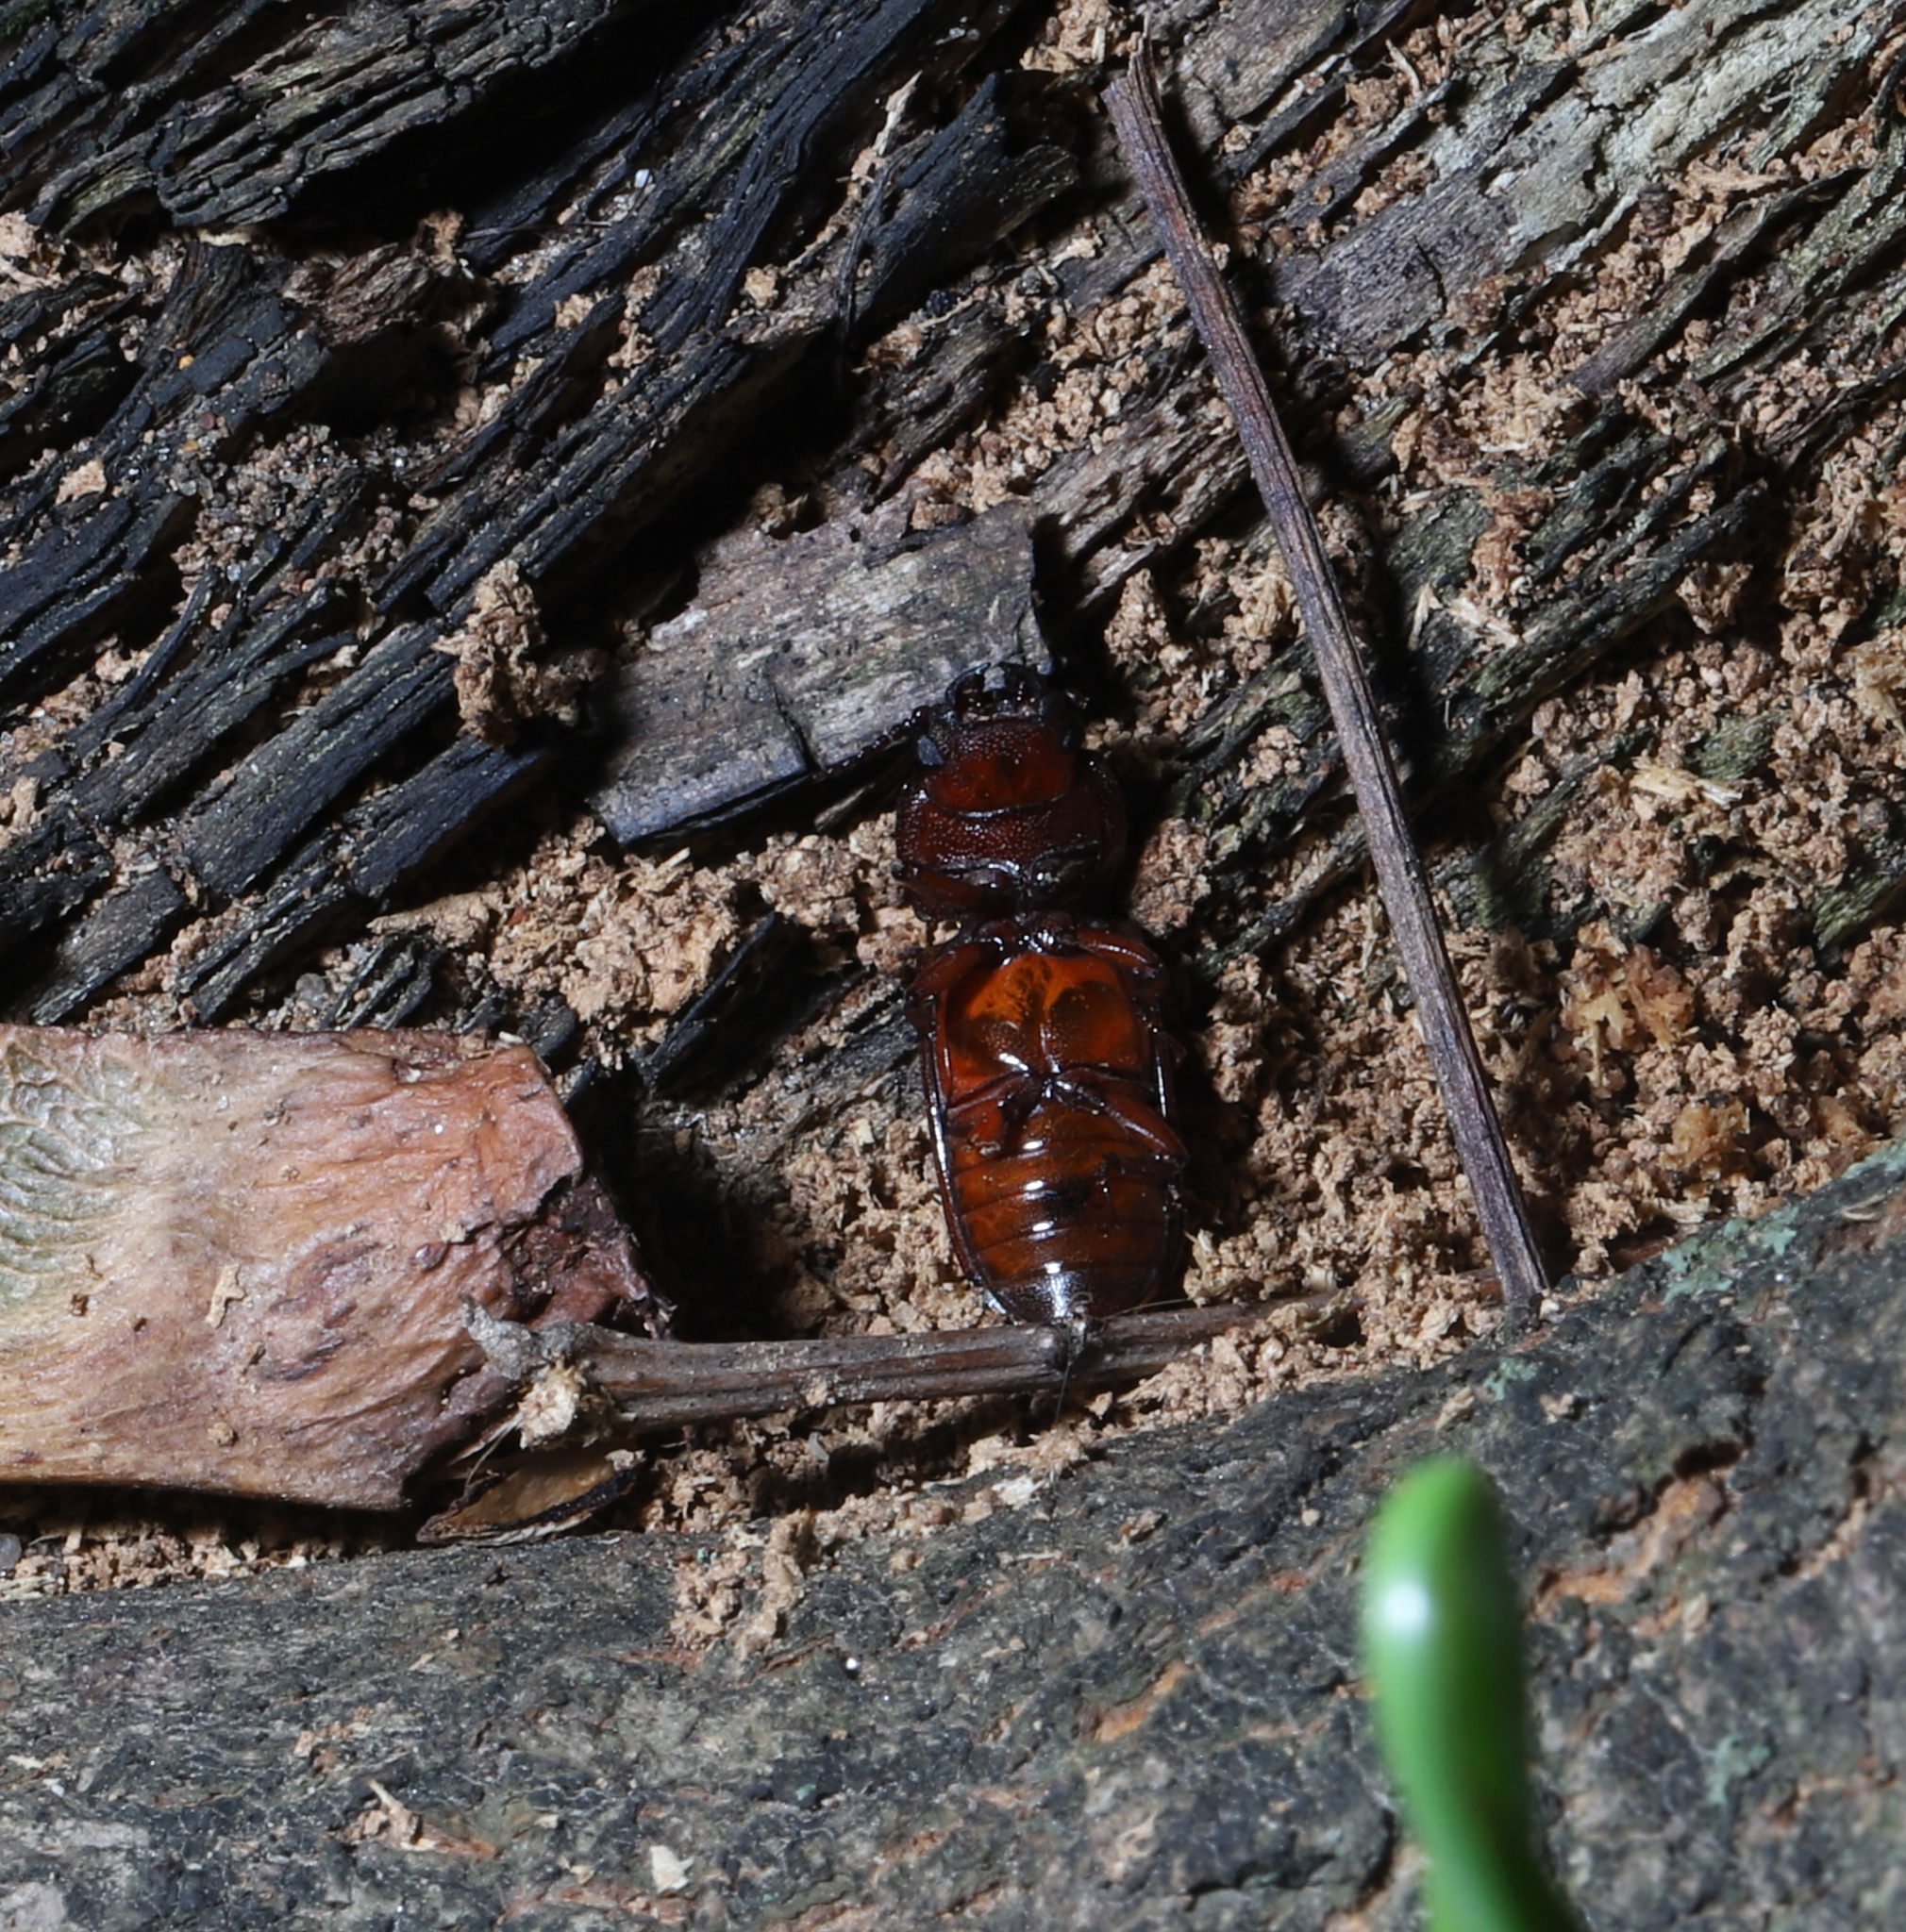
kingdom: Animalia
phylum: Arthropoda
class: Insecta
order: Coleoptera
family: Cerambycidae
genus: Neandra
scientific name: Neandra brunnea
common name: Pole borer
